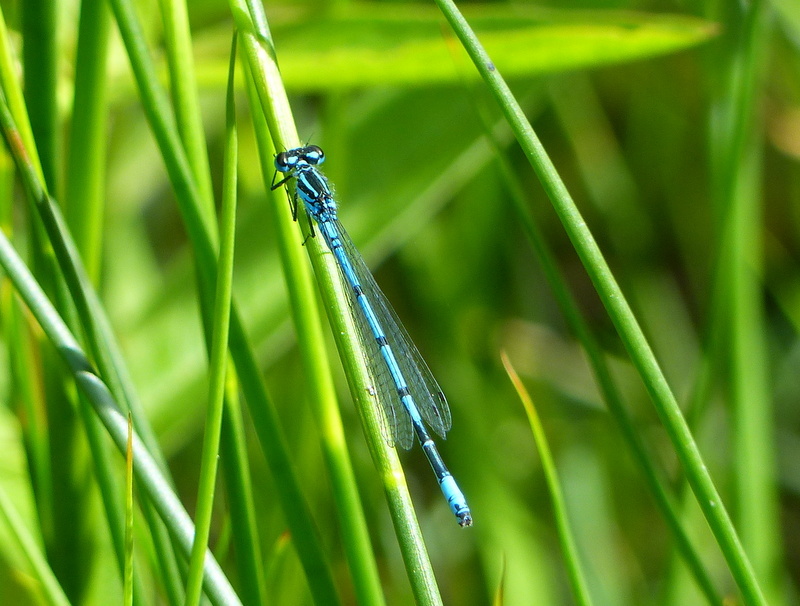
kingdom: Animalia
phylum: Arthropoda
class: Insecta
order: Odonata
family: Coenagrionidae
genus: Coenagrion
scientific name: Coenagrion puella
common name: Azure damselfly
